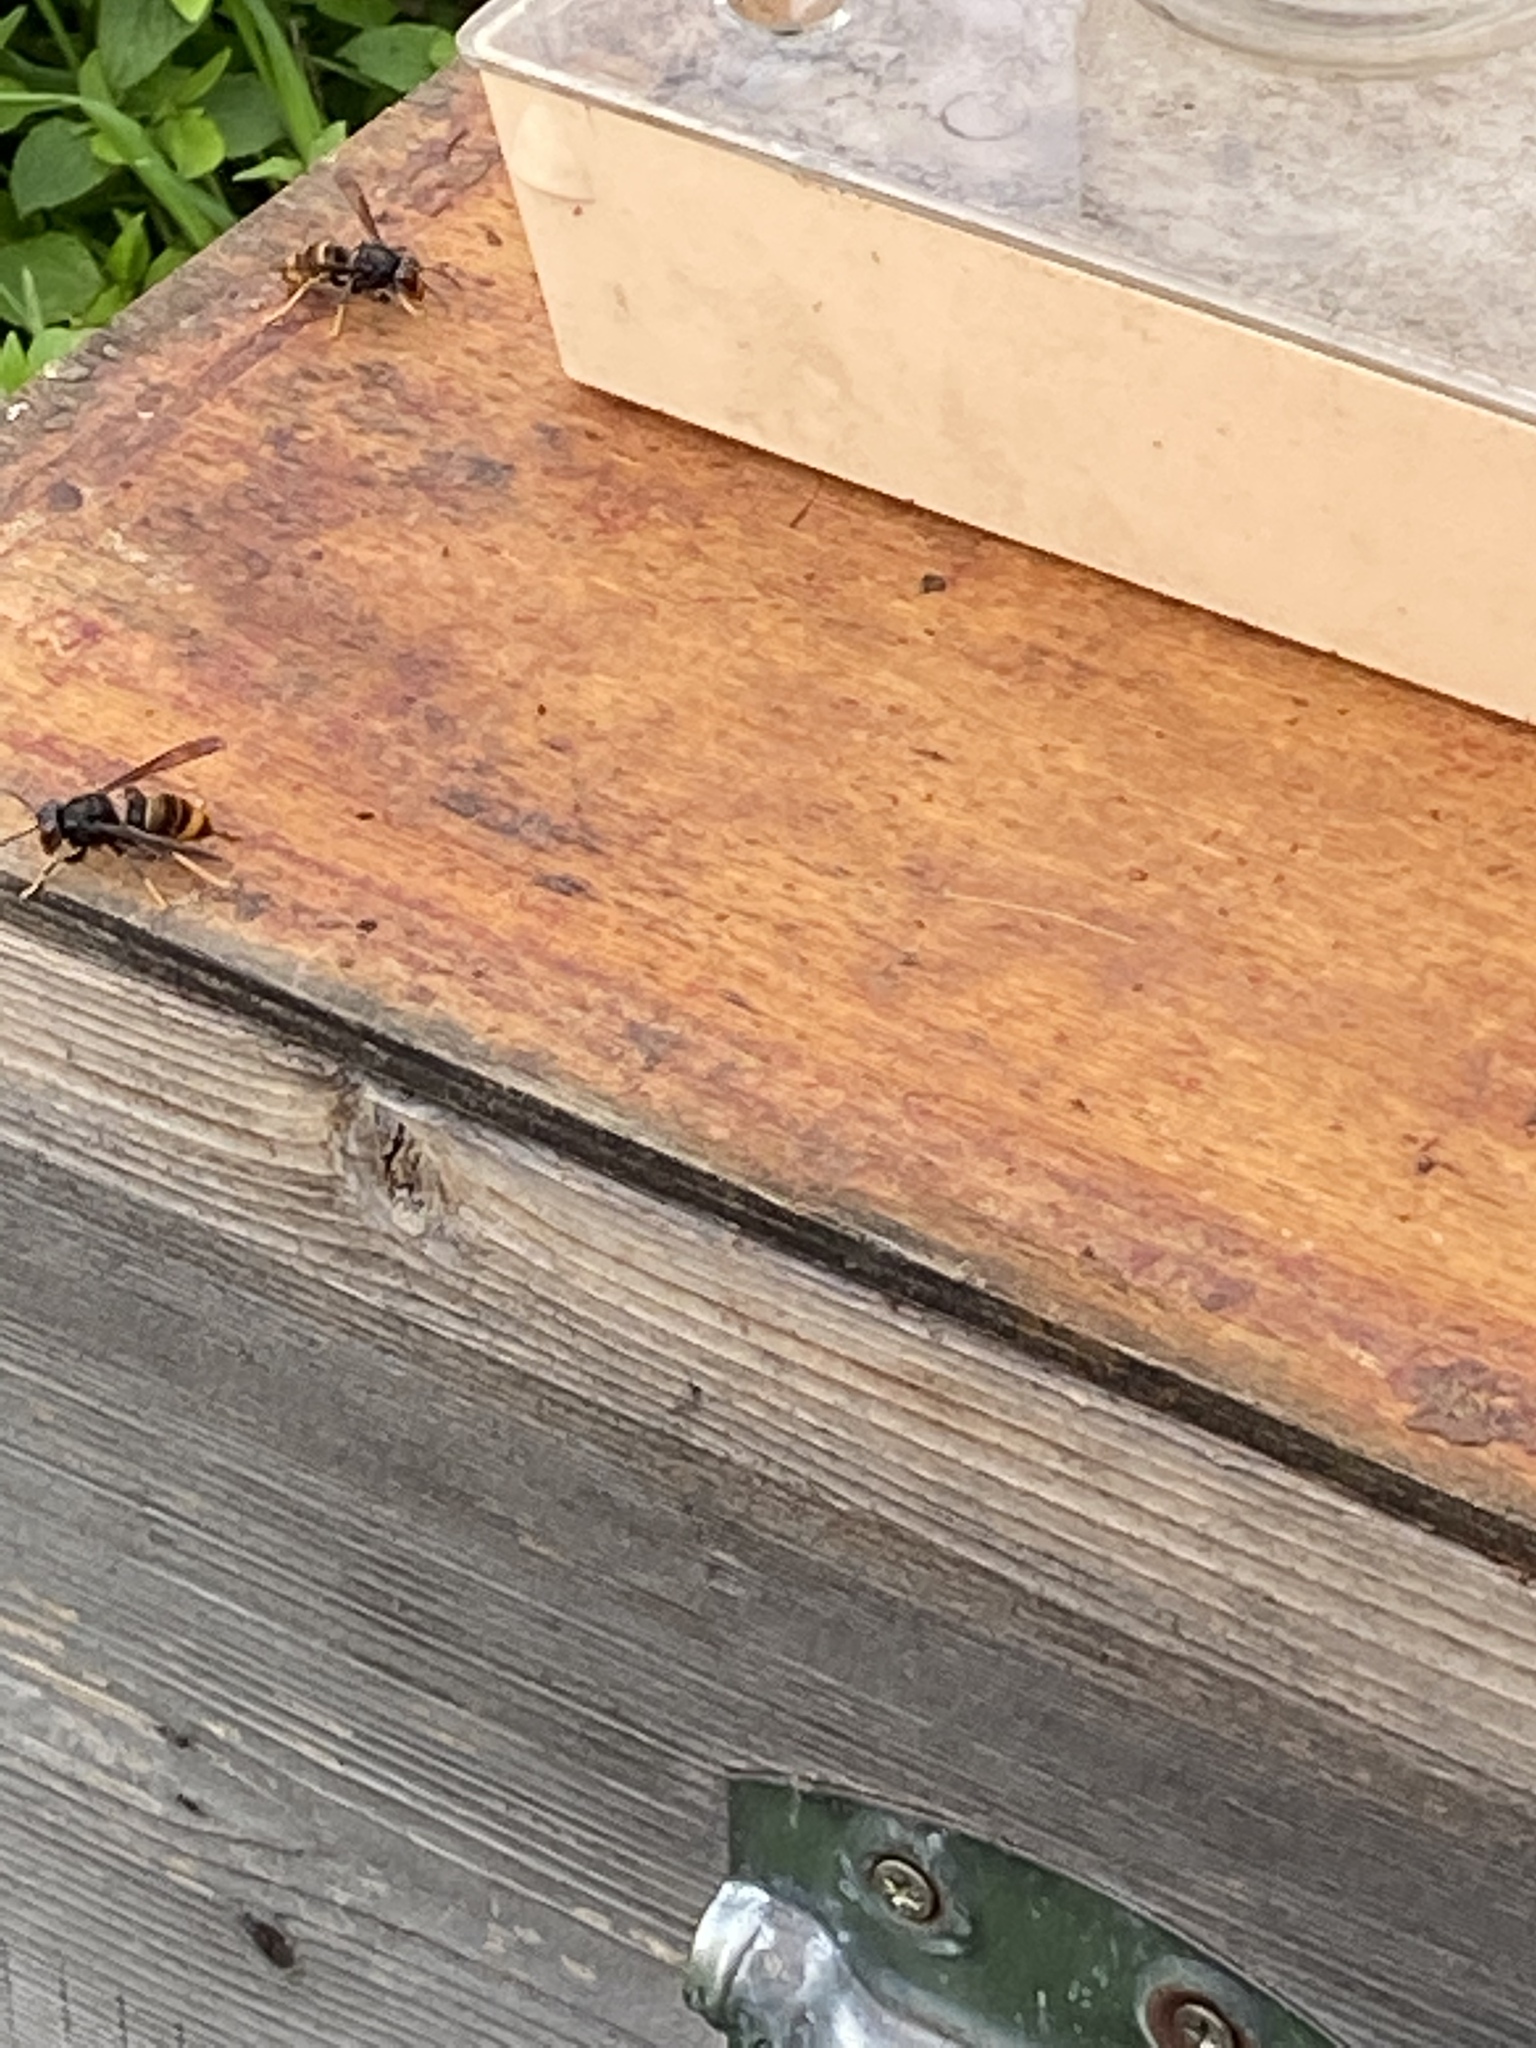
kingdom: Animalia
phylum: Arthropoda
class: Insecta
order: Hymenoptera
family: Vespidae
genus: Vespa
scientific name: Vespa velutina
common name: Asian hornet
